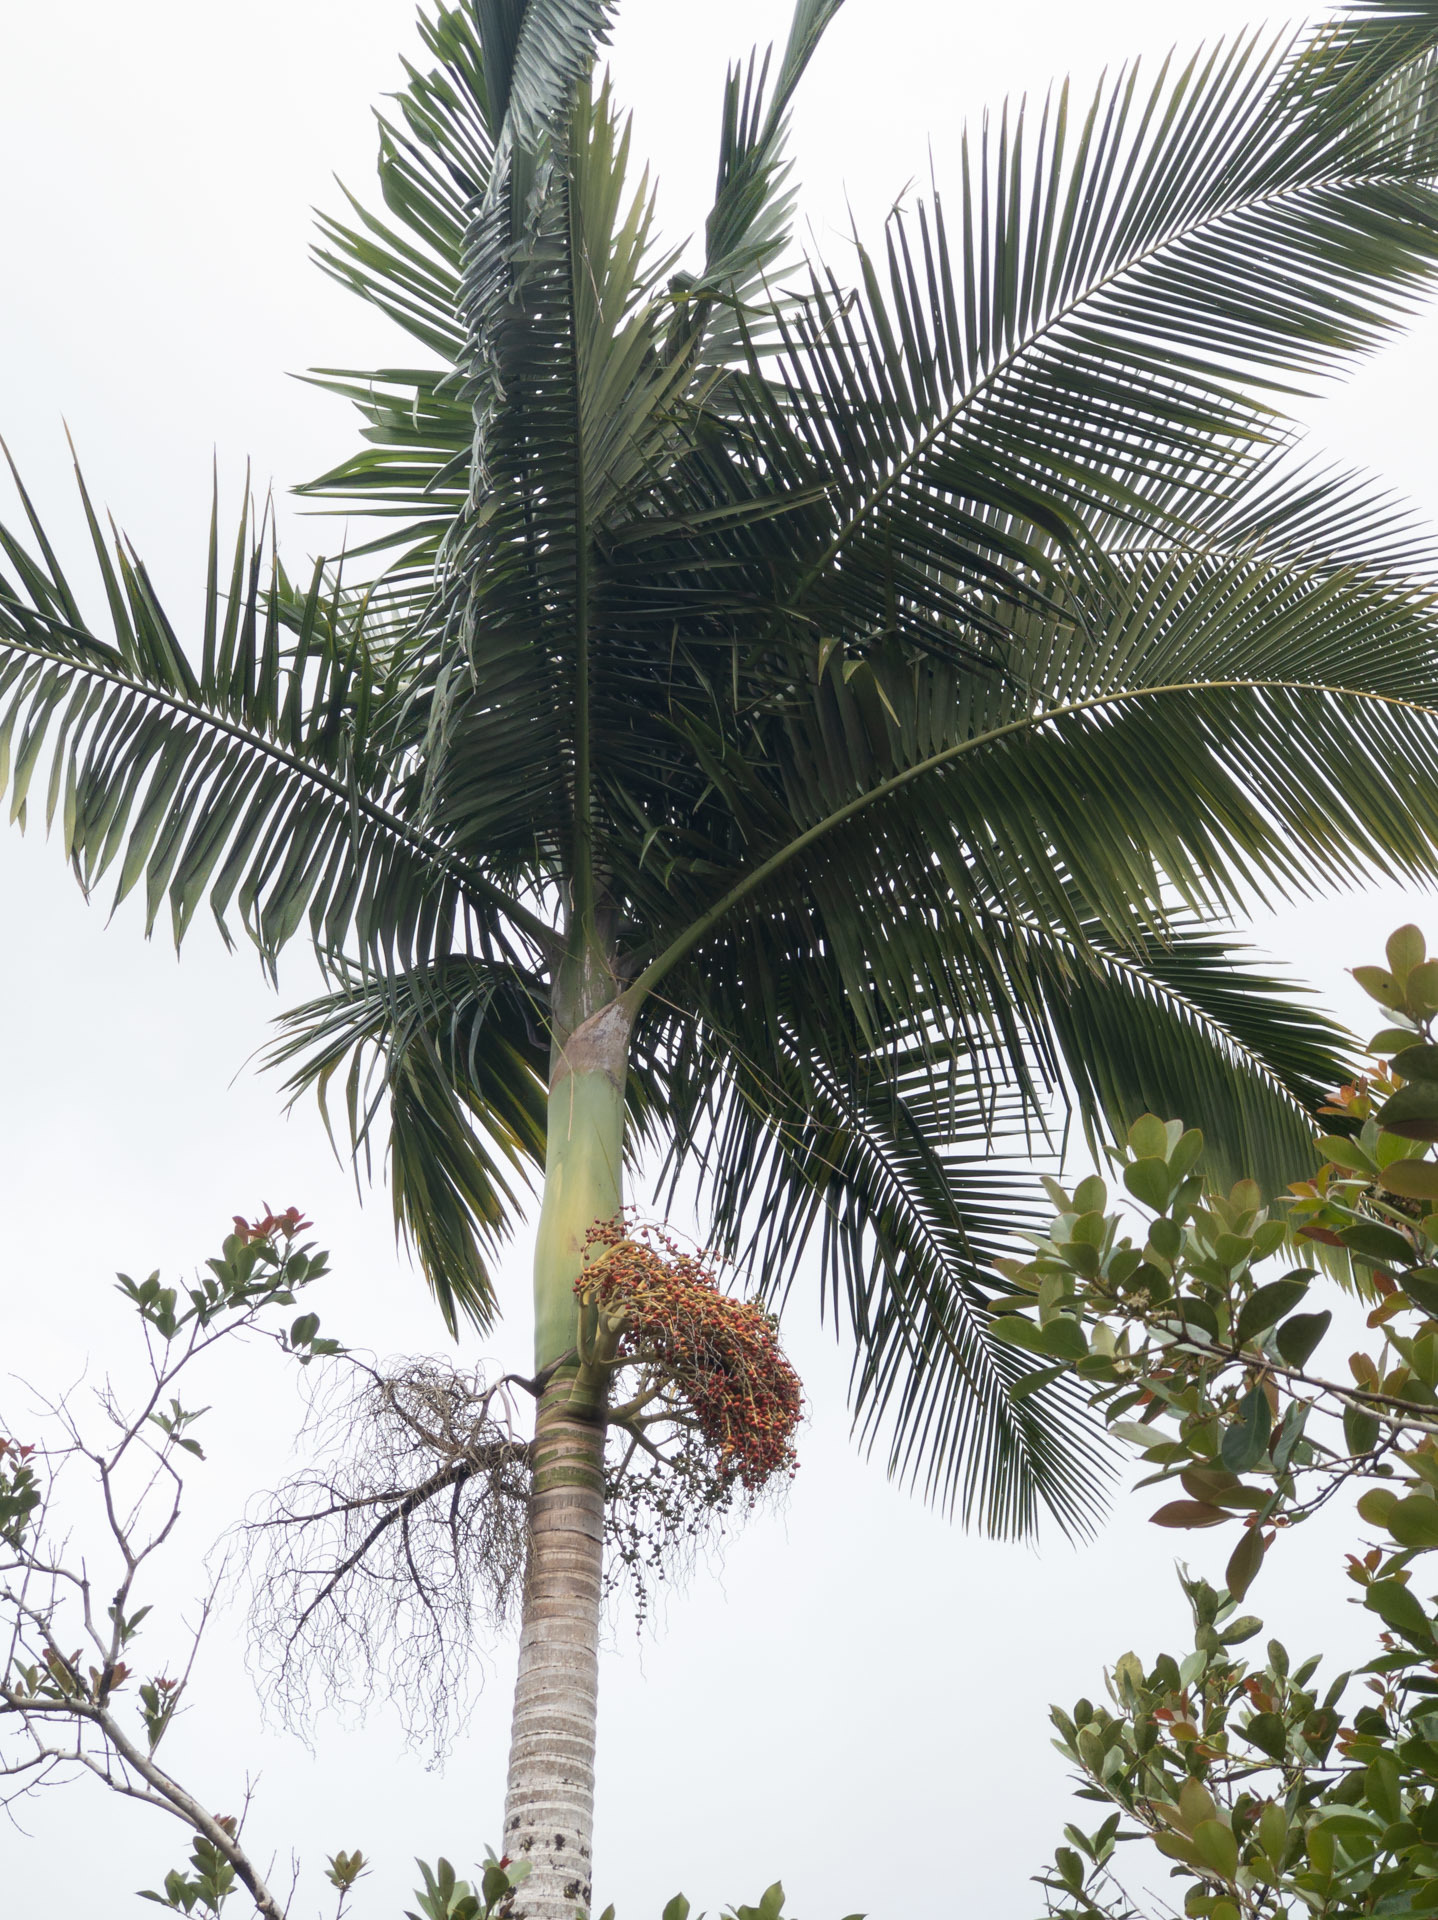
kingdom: Plantae
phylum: Tracheophyta
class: Liliopsida
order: Arecales
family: Arecaceae
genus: Archontophoenix
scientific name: Archontophoenix alexandrae
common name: Alexandra palm
